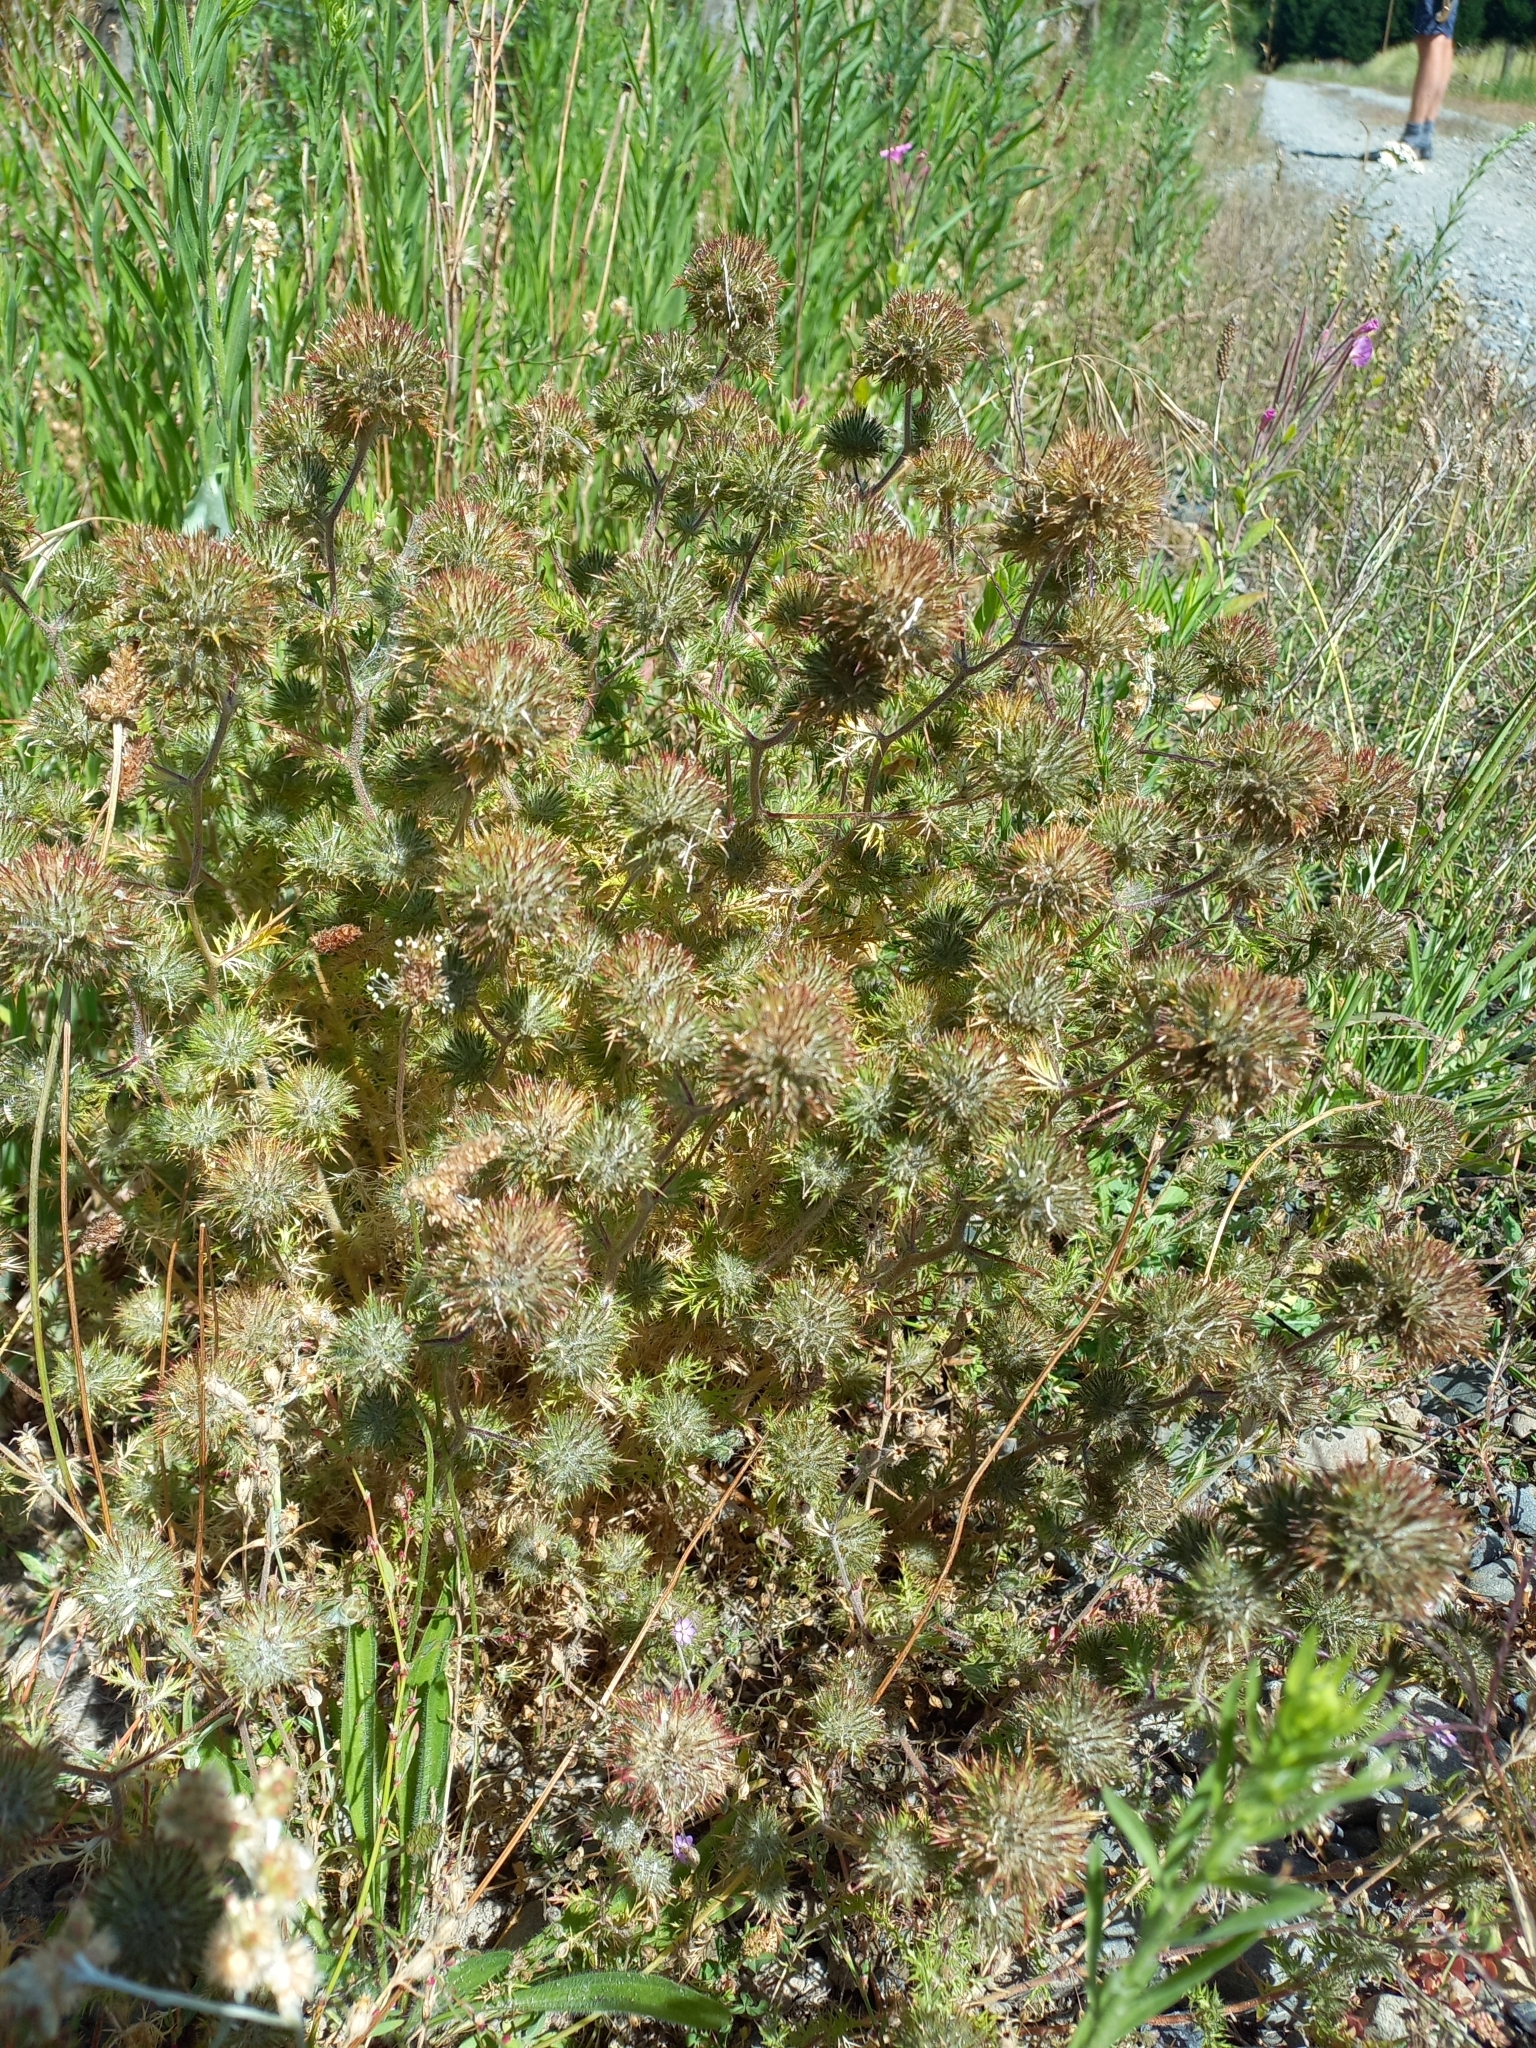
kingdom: Plantae
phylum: Tracheophyta
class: Magnoliopsida
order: Ericales
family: Polemoniaceae
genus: Navarretia
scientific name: Navarretia squarrosa
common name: Skunkweed
